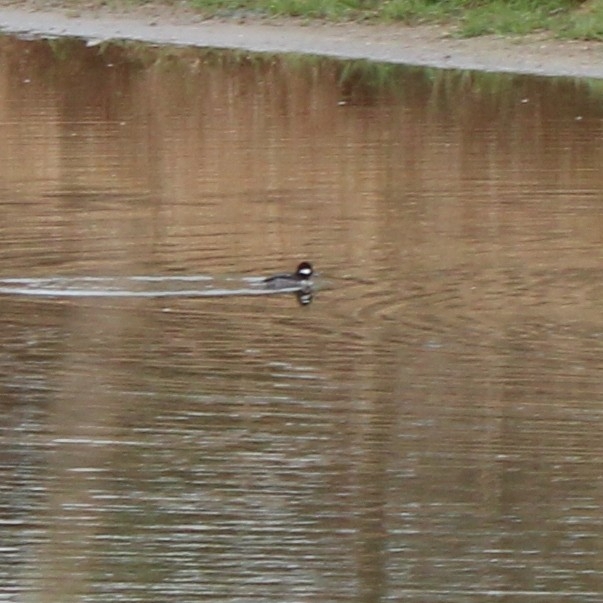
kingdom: Animalia
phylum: Chordata
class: Aves
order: Anseriformes
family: Anatidae
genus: Bucephala
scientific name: Bucephala albeola
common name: Bufflehead
